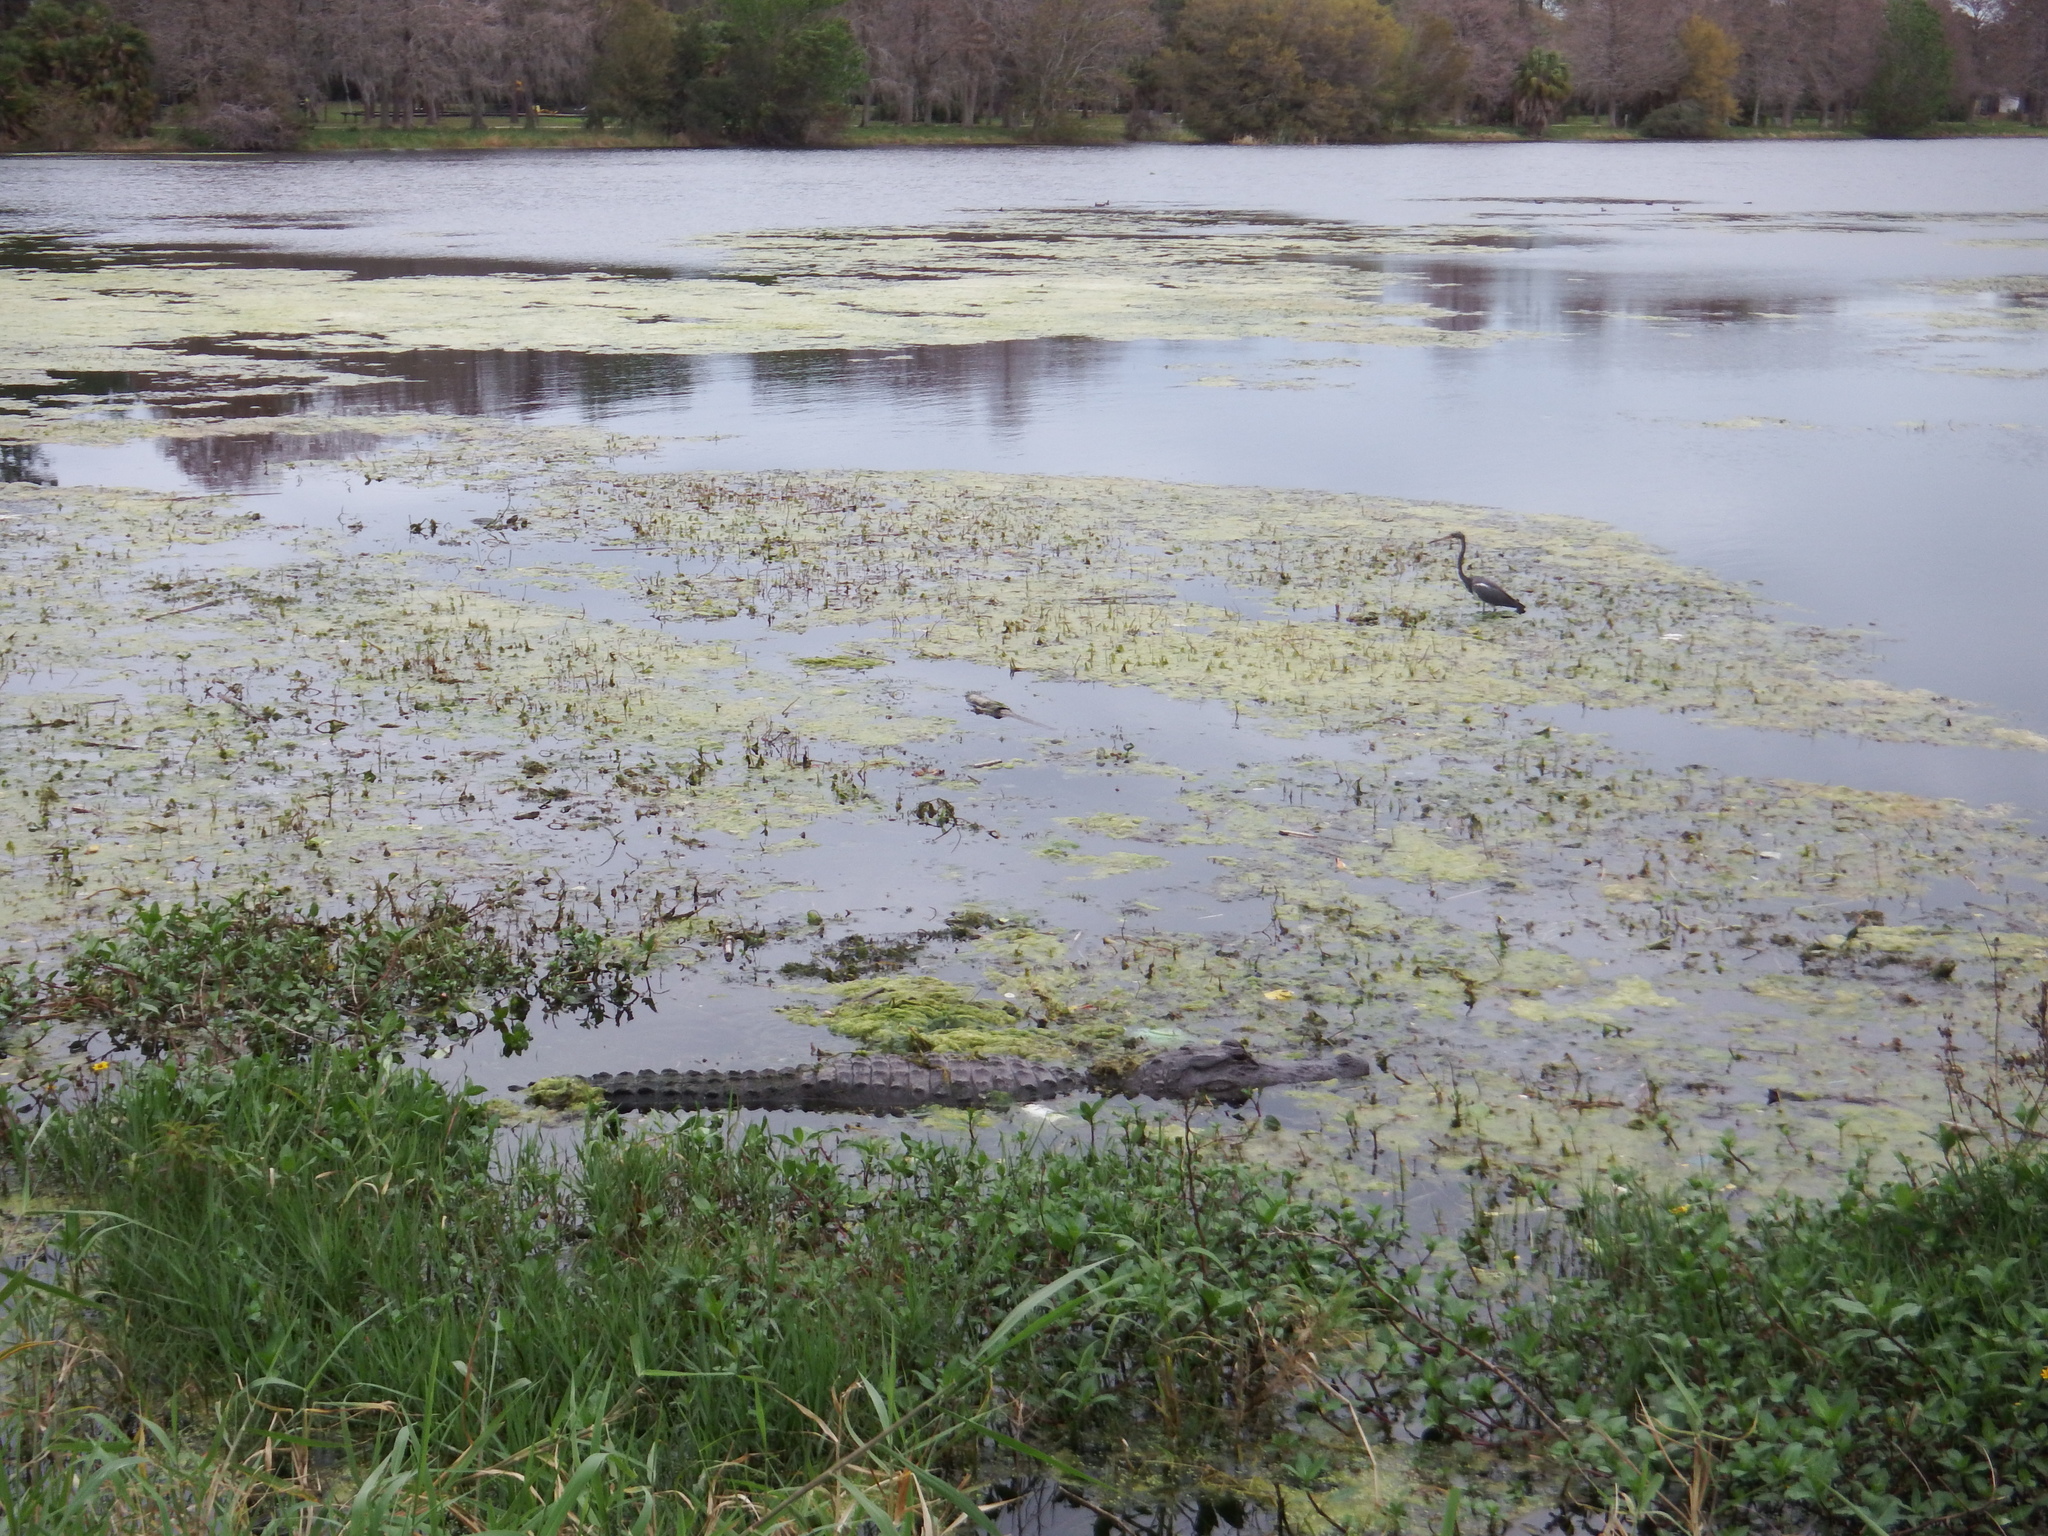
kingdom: Animalia
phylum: Chordata
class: Crocodylia
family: Alligatoridae
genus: Alligator
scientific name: Alligator mississippiensis
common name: American alligator
